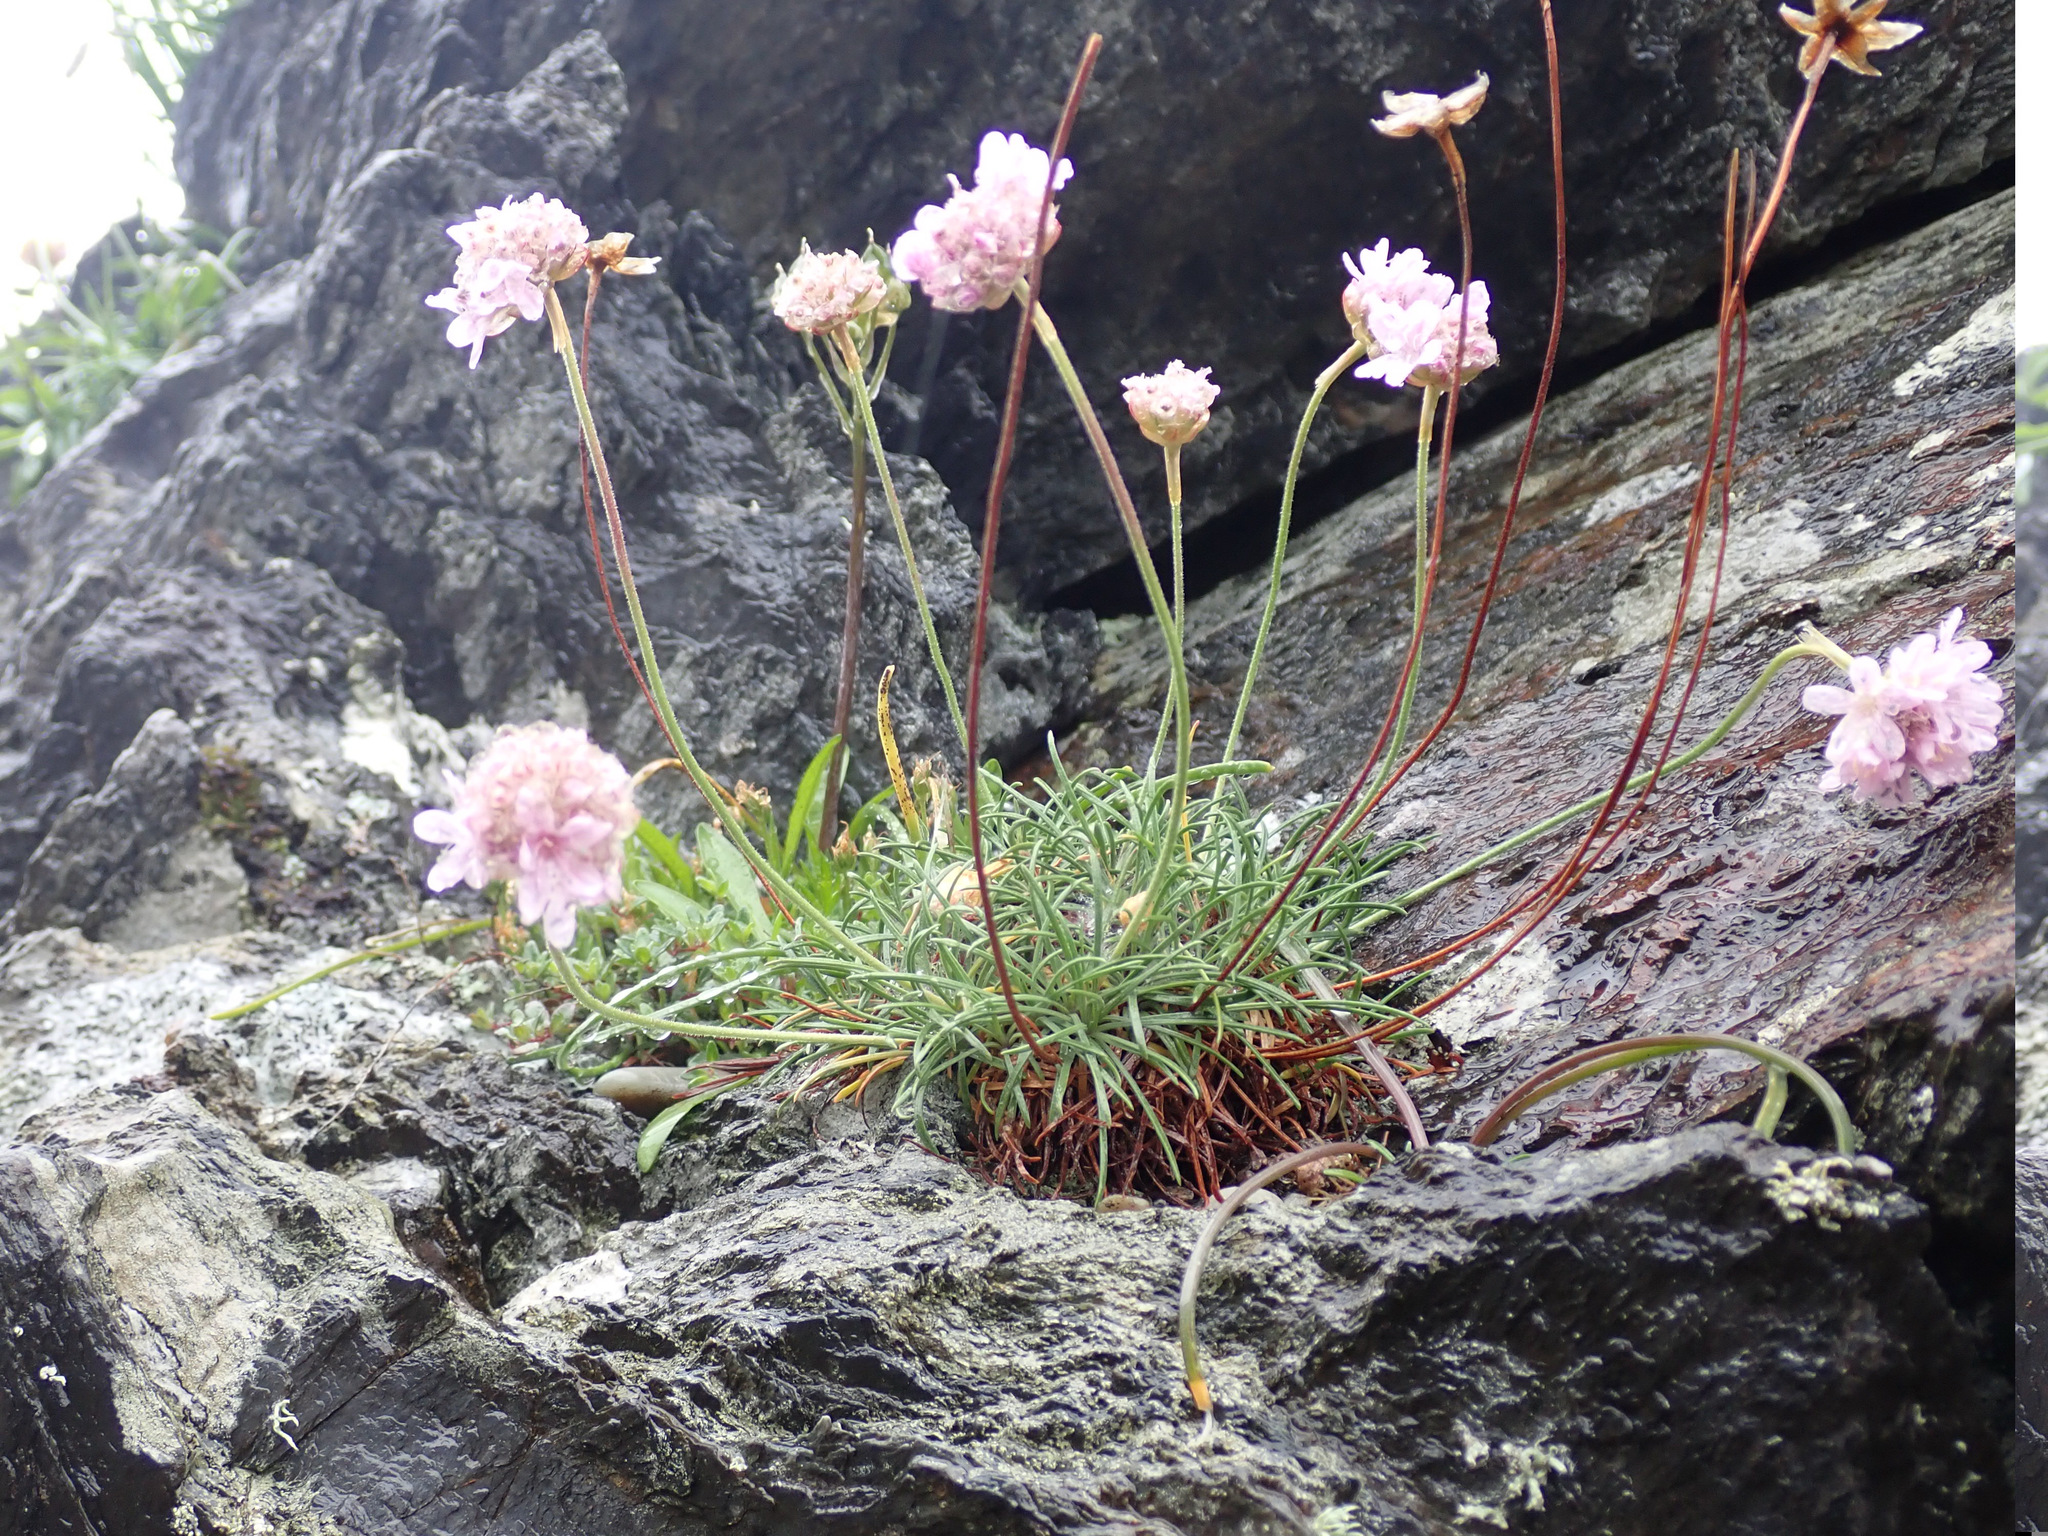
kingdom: Plantae
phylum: Tracheophyta
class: Magnoliopsida
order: Caryophyllales
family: Plumbaginaceae
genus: Armeria
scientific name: Armeria maritima
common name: Thrift
